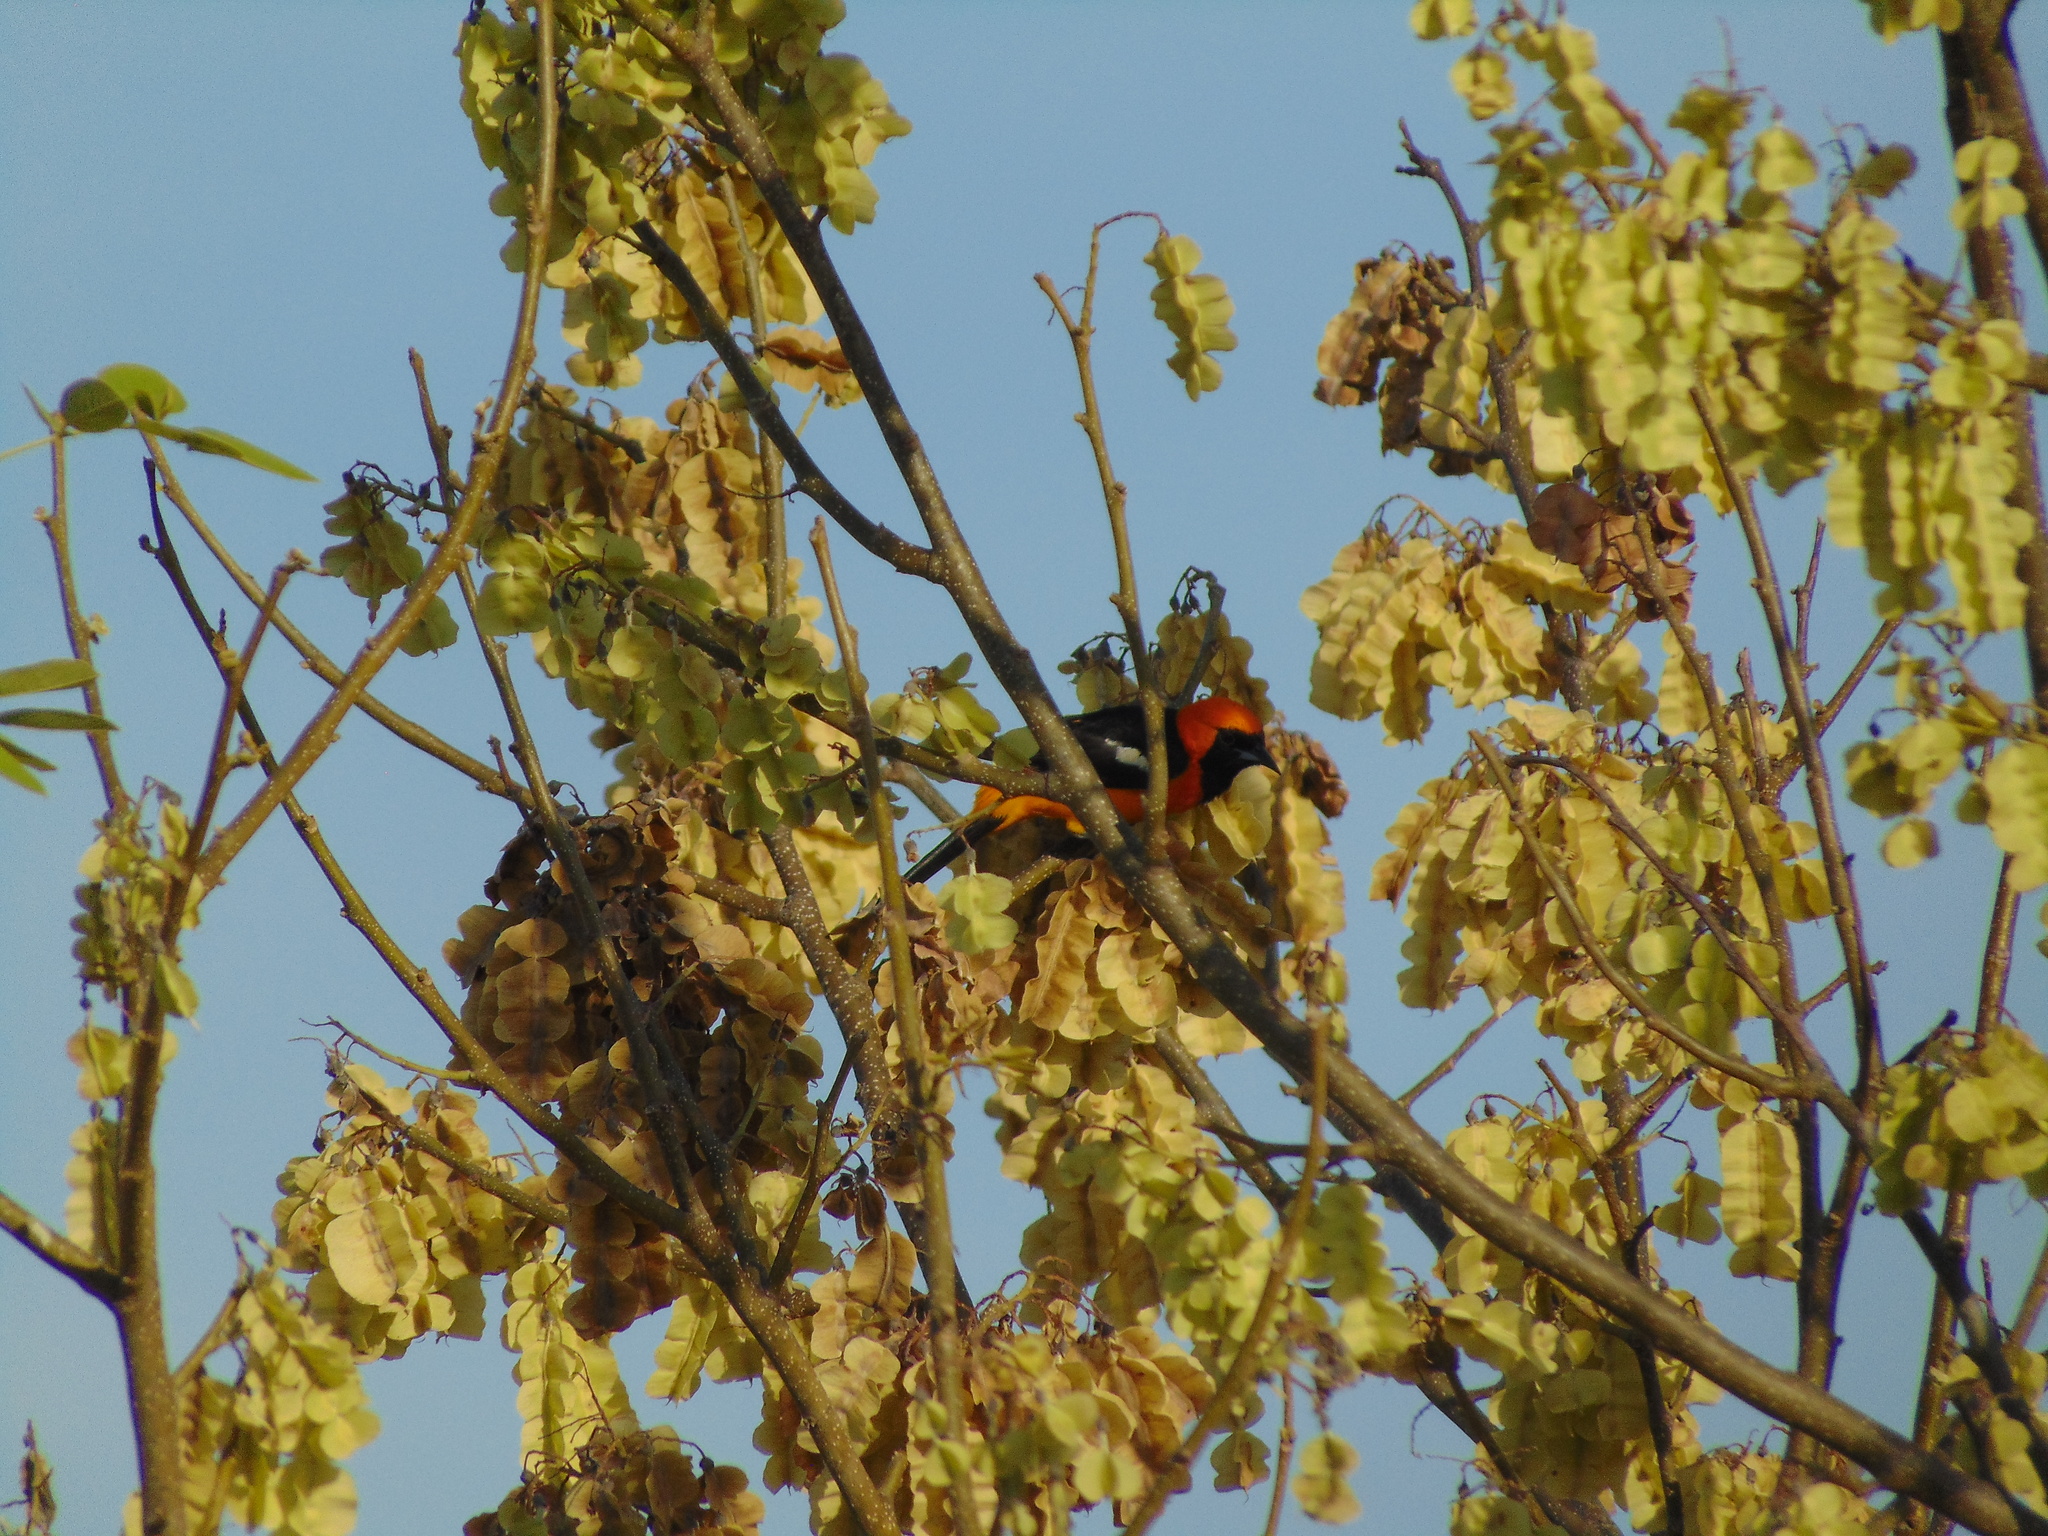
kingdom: Animalia
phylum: Chordata
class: Aves
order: Passeriformes
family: Icteridae
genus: Icterus
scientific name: Icterus cucullatus
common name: Hooded oriole
